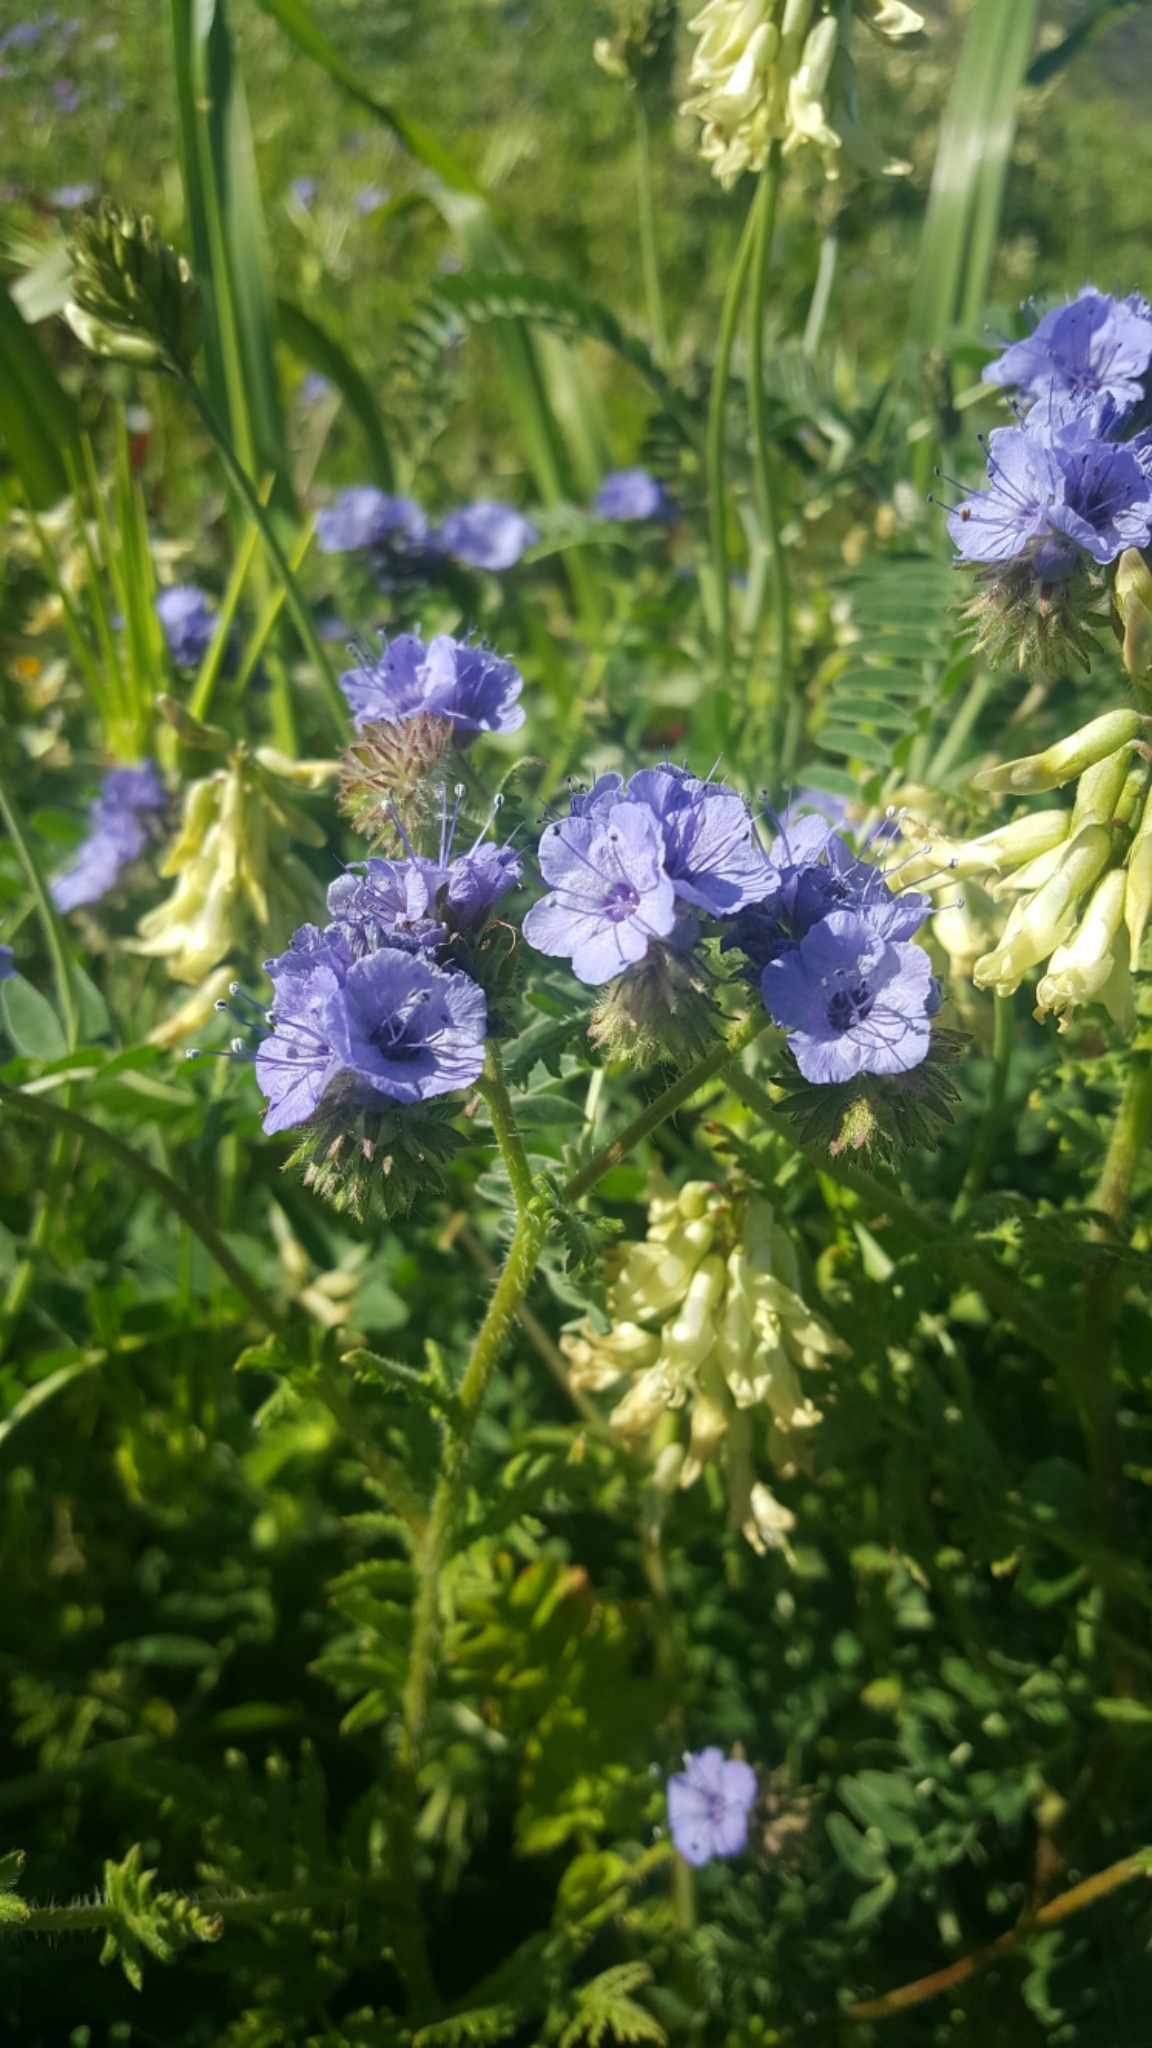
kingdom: Plantae
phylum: Tracheophyta
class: Magnoliopsida
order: Boraginales
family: Hydrophyllaceae
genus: Phacelia
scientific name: Phacelia distans
